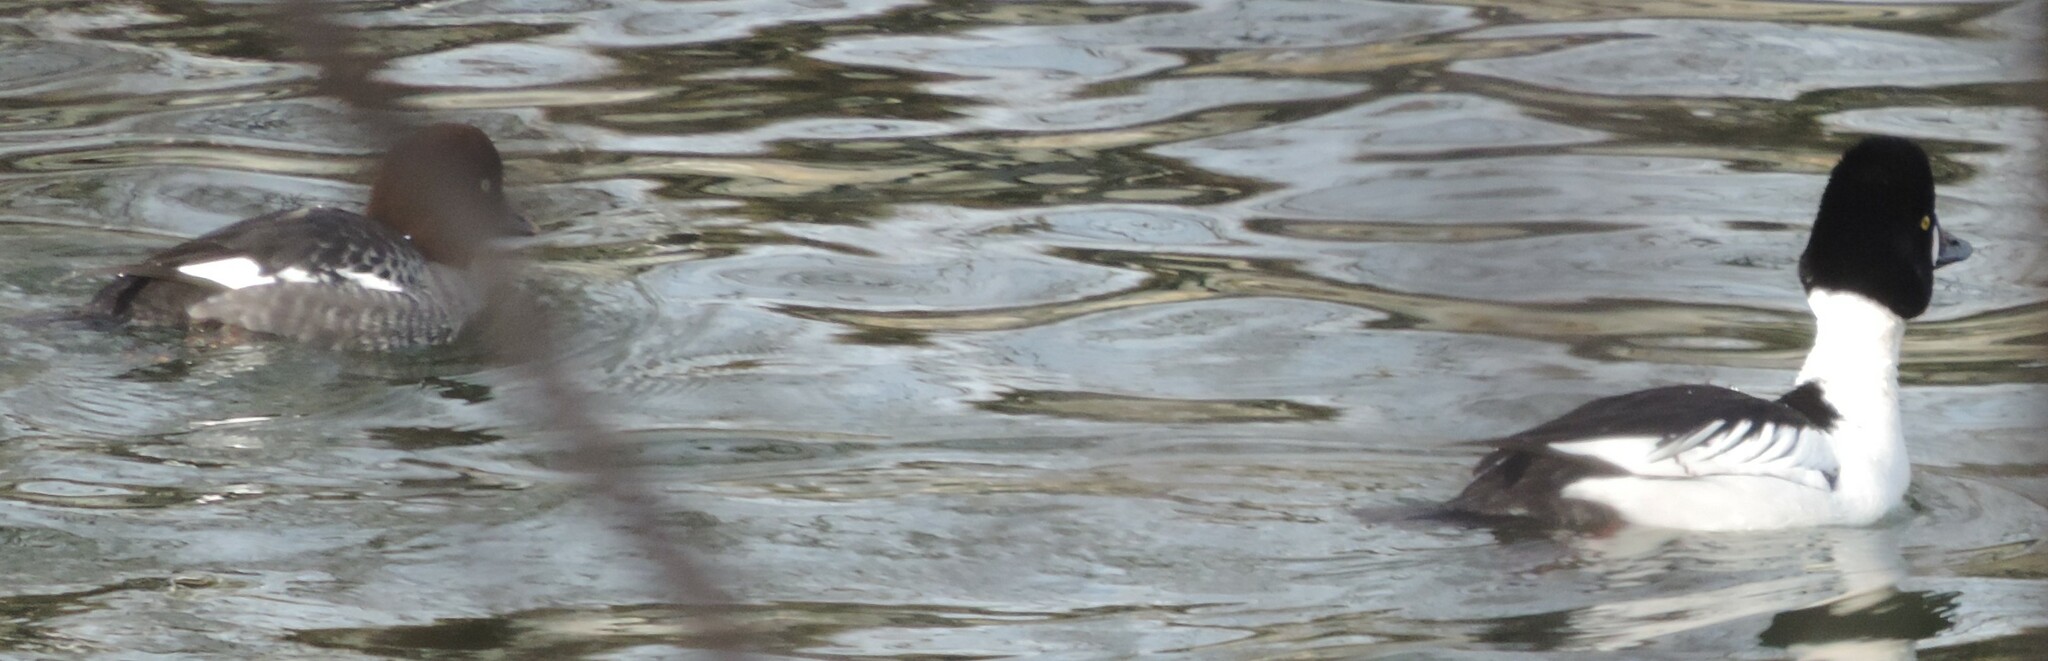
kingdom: Animalia
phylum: Chordata
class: Aves
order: Anseriformes
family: Anatidae
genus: Bucephala
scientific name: Bucephala clangula
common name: Common goldeneye
